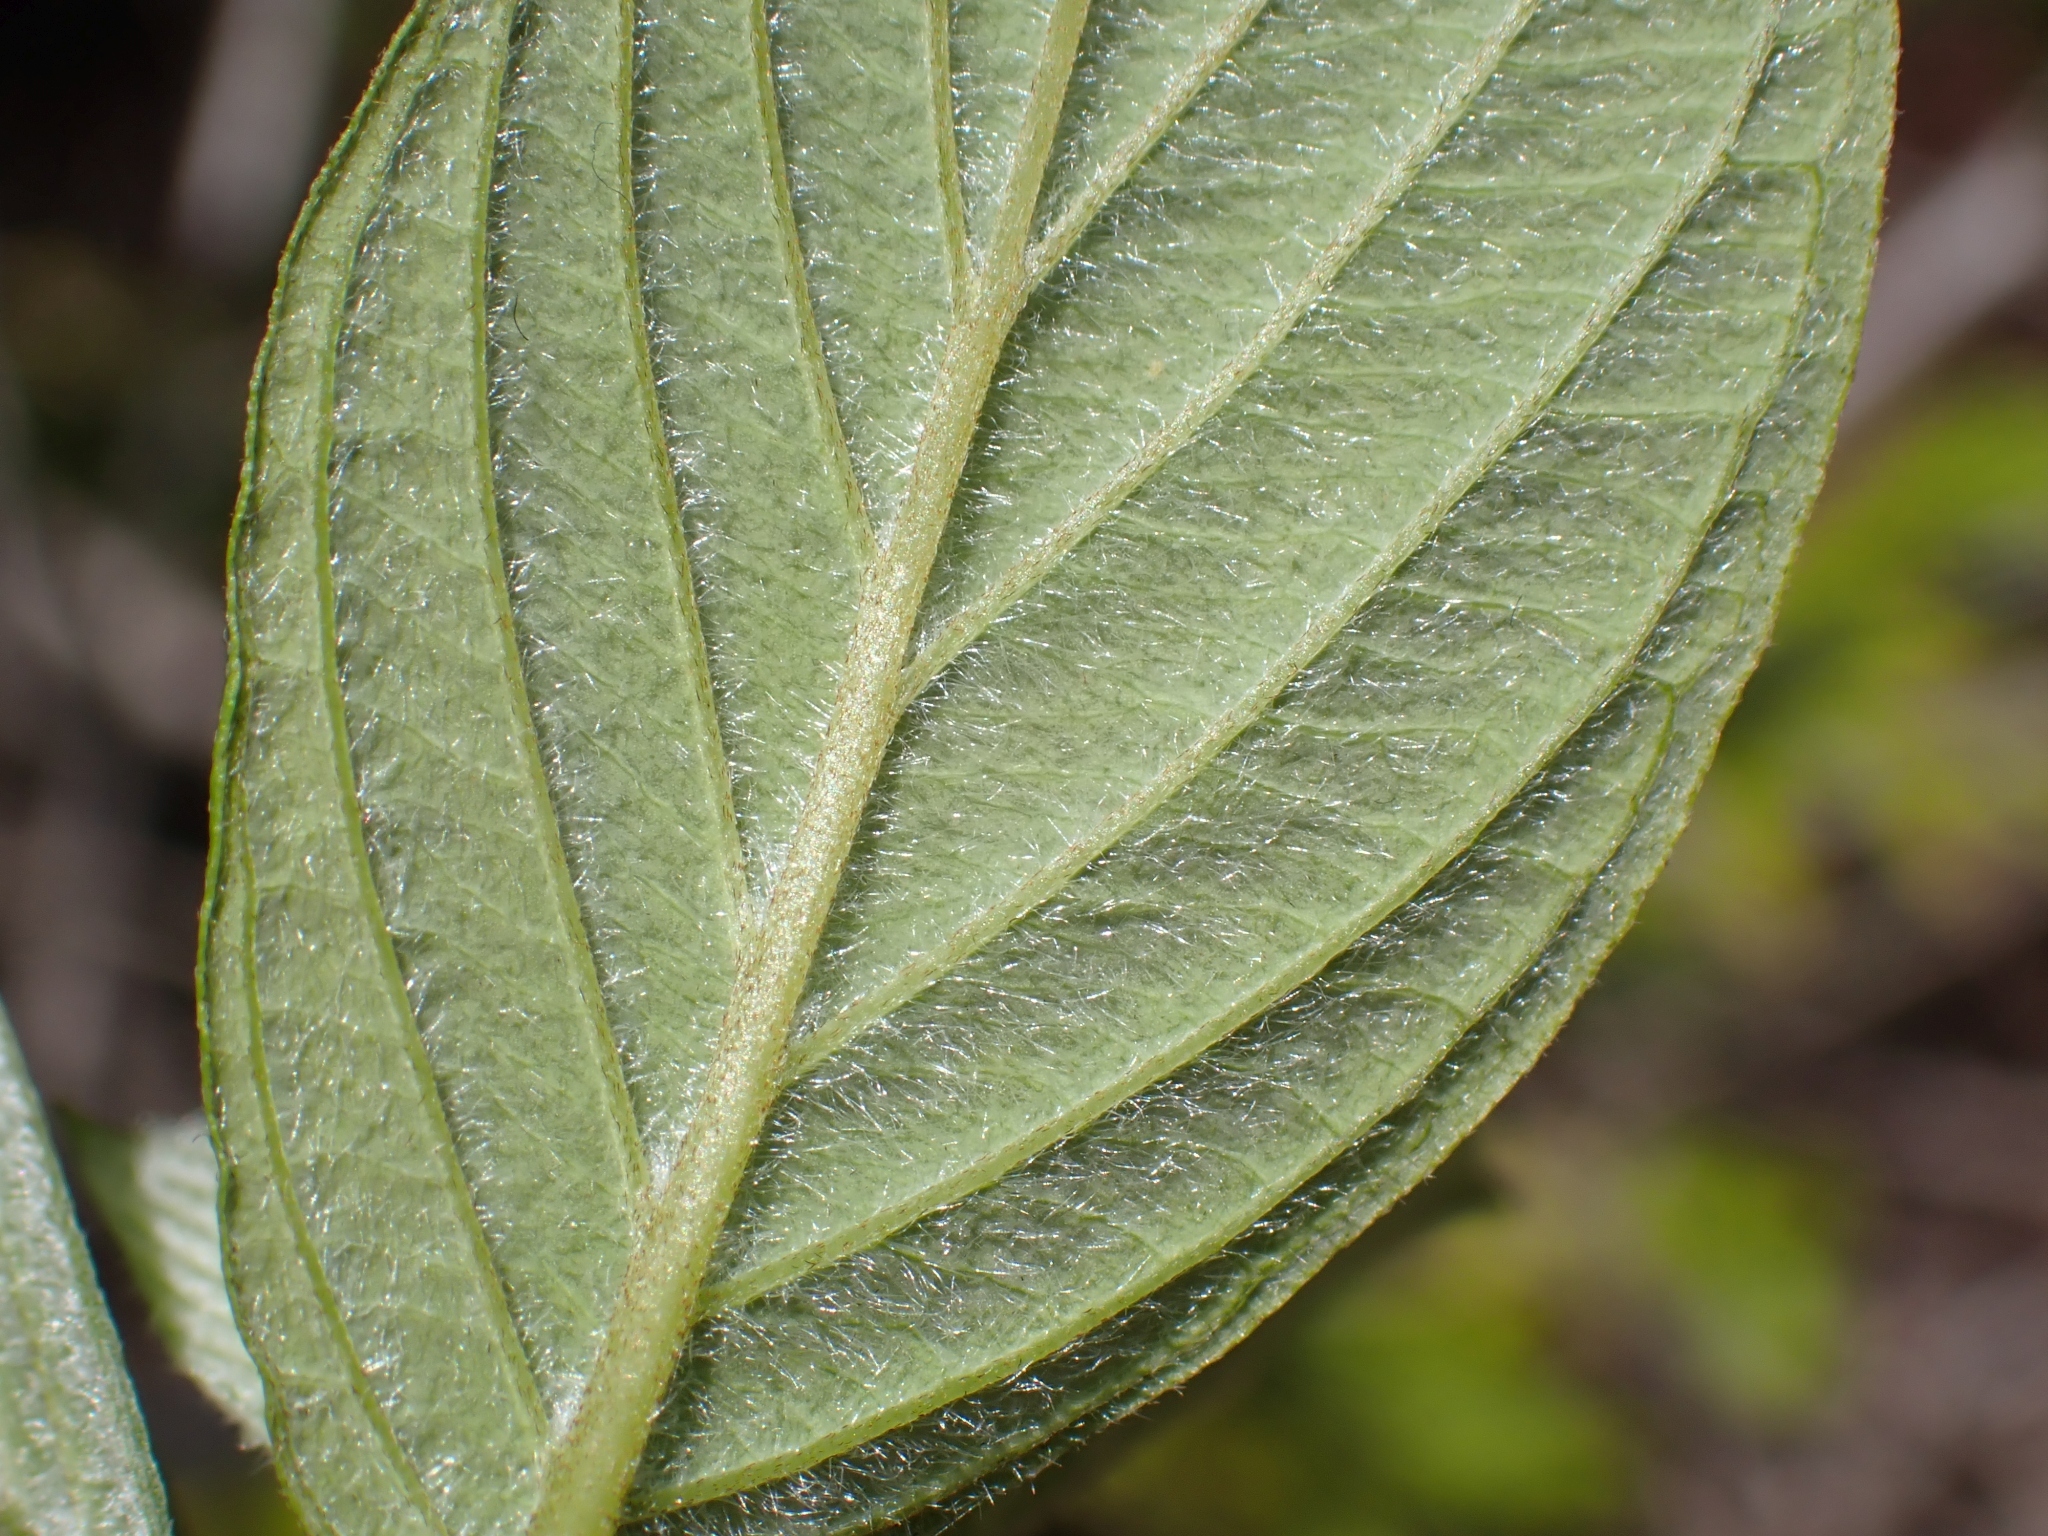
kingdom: Plantae
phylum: Tracheophyta
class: Magnoliopsida
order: Cornales
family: Cornaceae
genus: Cornus
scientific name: Cornus sericea
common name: Red-osier dogwood
